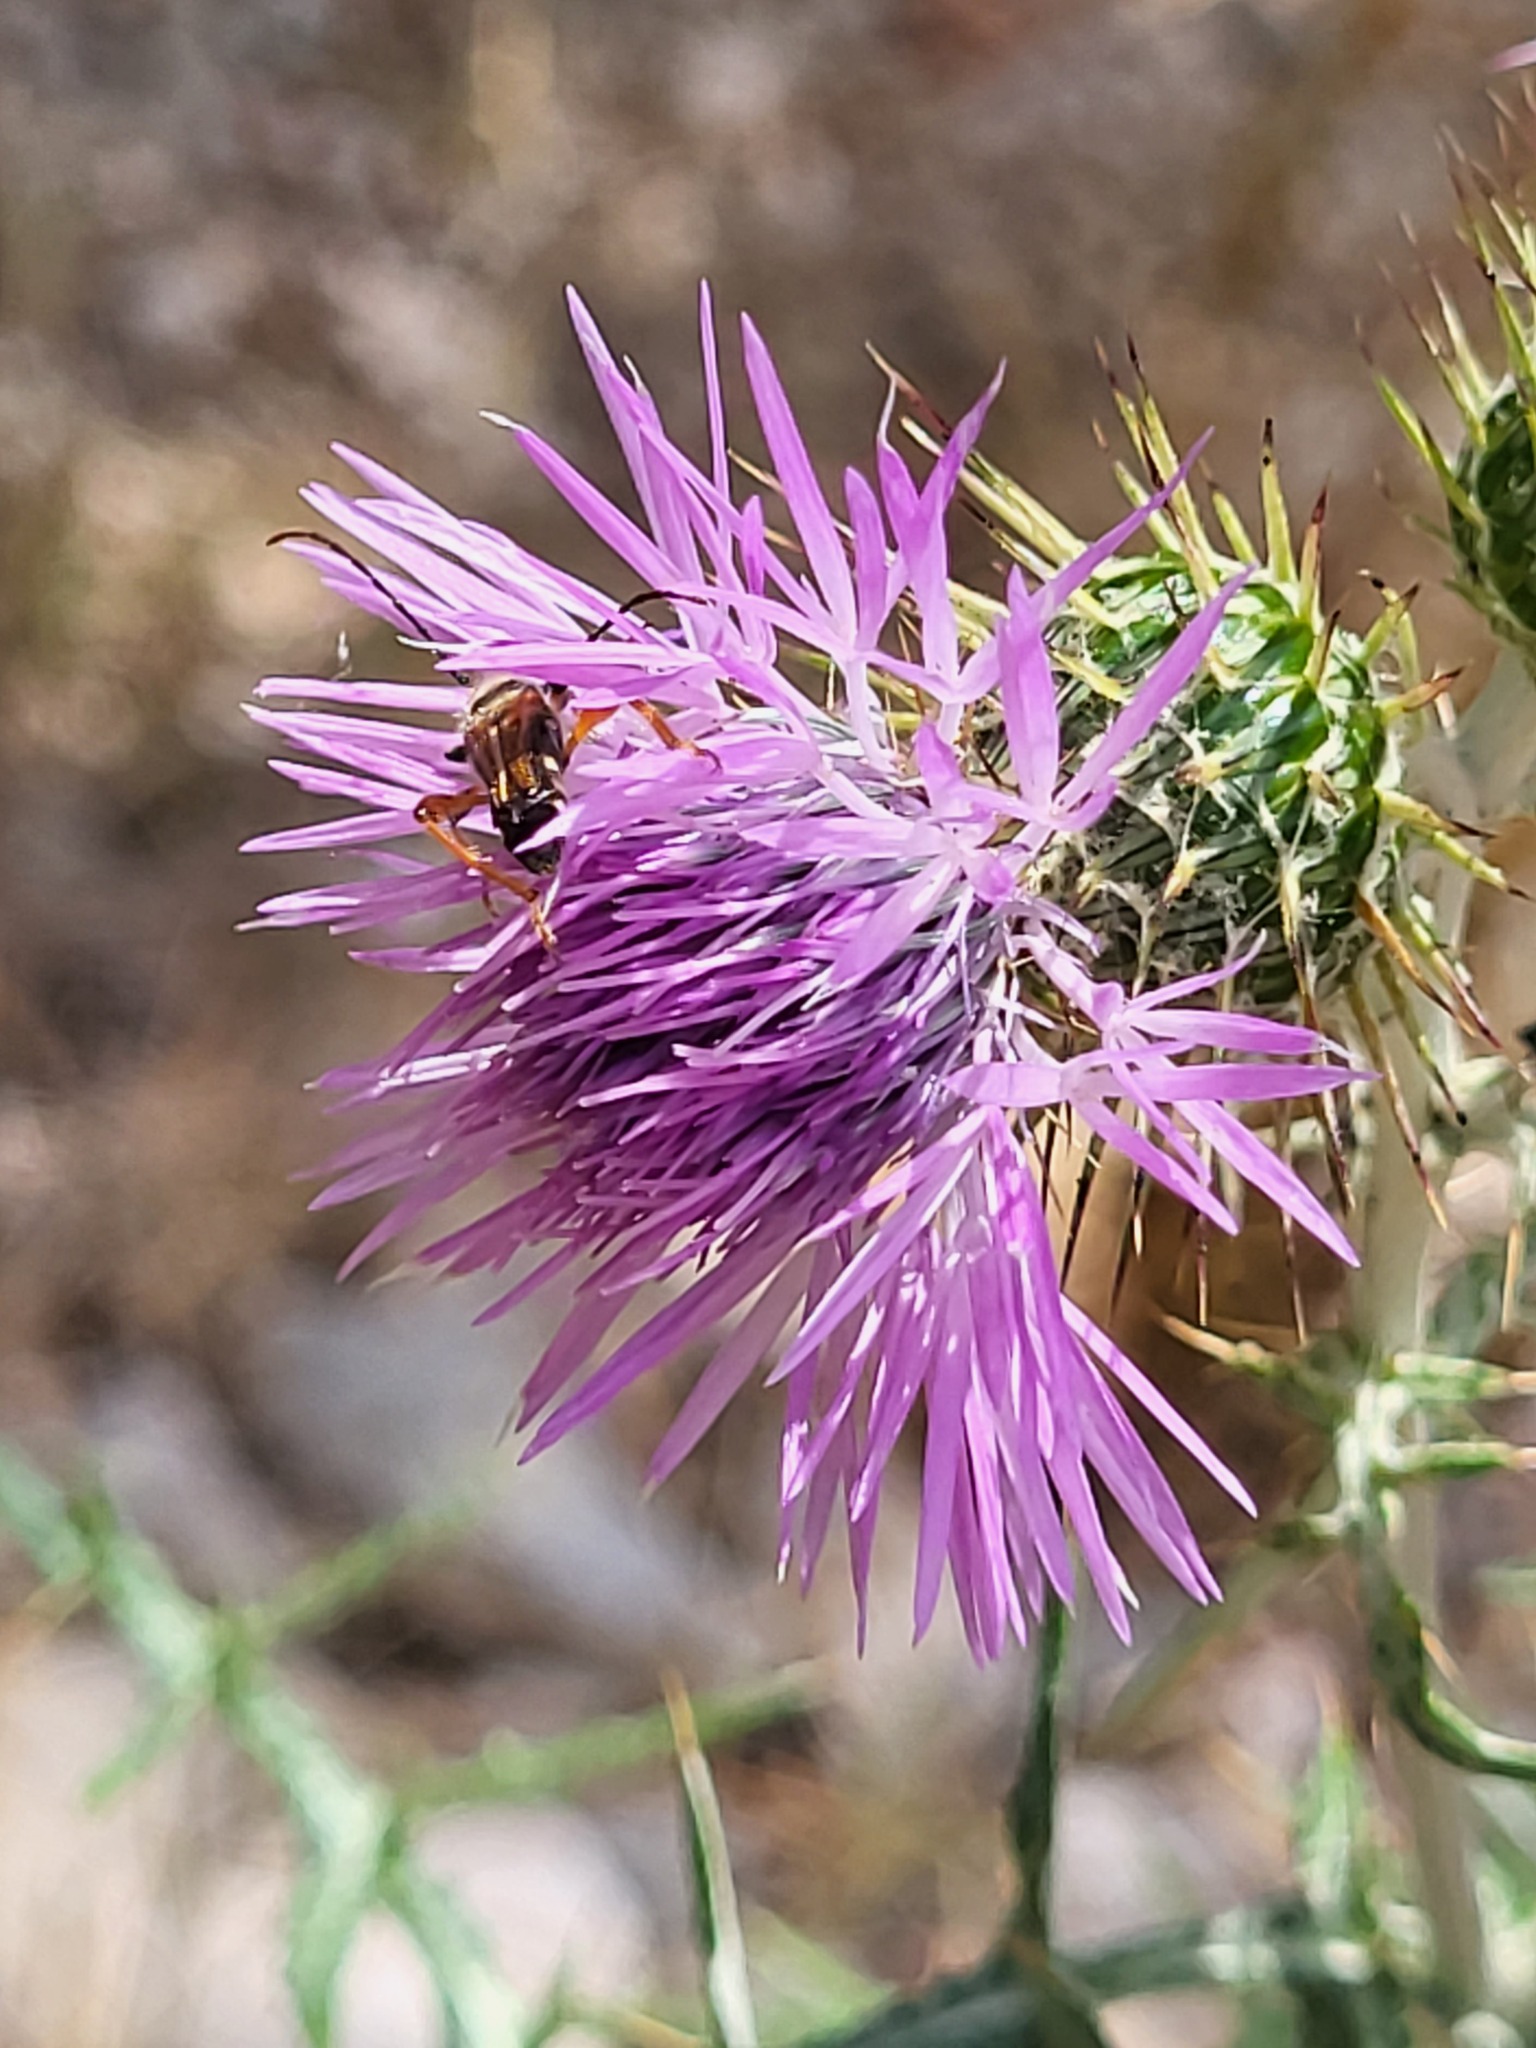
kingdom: Plantae
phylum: Tracheophyta
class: Magnoliopsida
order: Asterales
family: Asteraceae
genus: Galactites
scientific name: Galactites tomentosa
